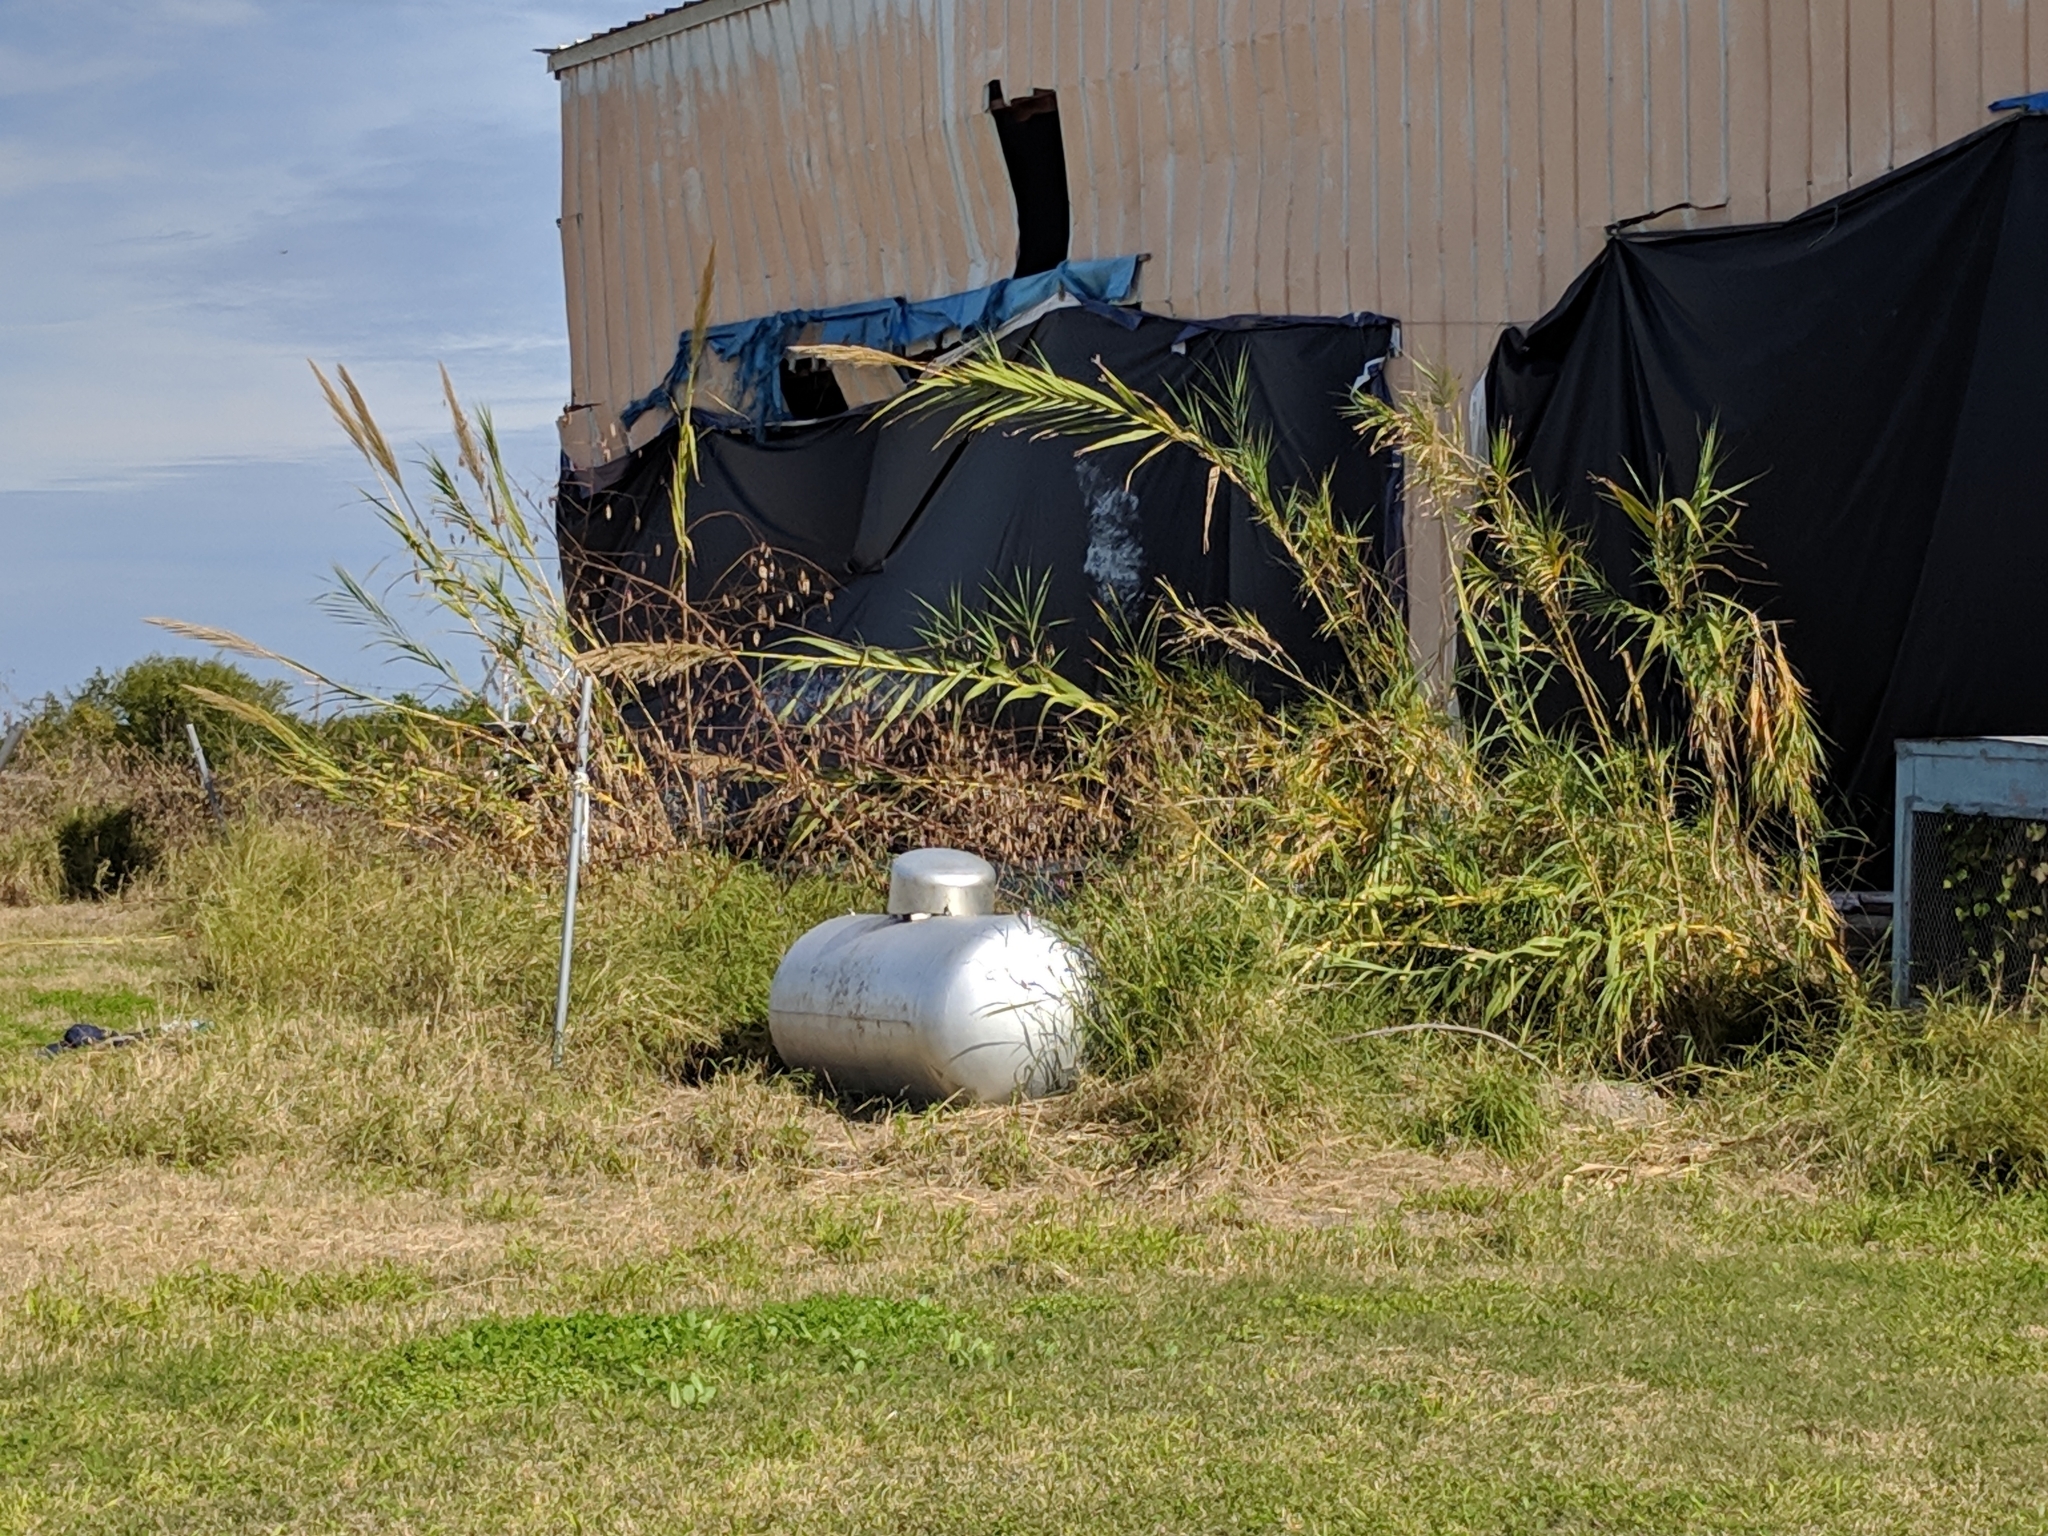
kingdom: Plantae
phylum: Tracheophyta
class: Liliopsida
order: Poales
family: Poaceae
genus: Arundo
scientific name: Arundo donax
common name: Giant reed
